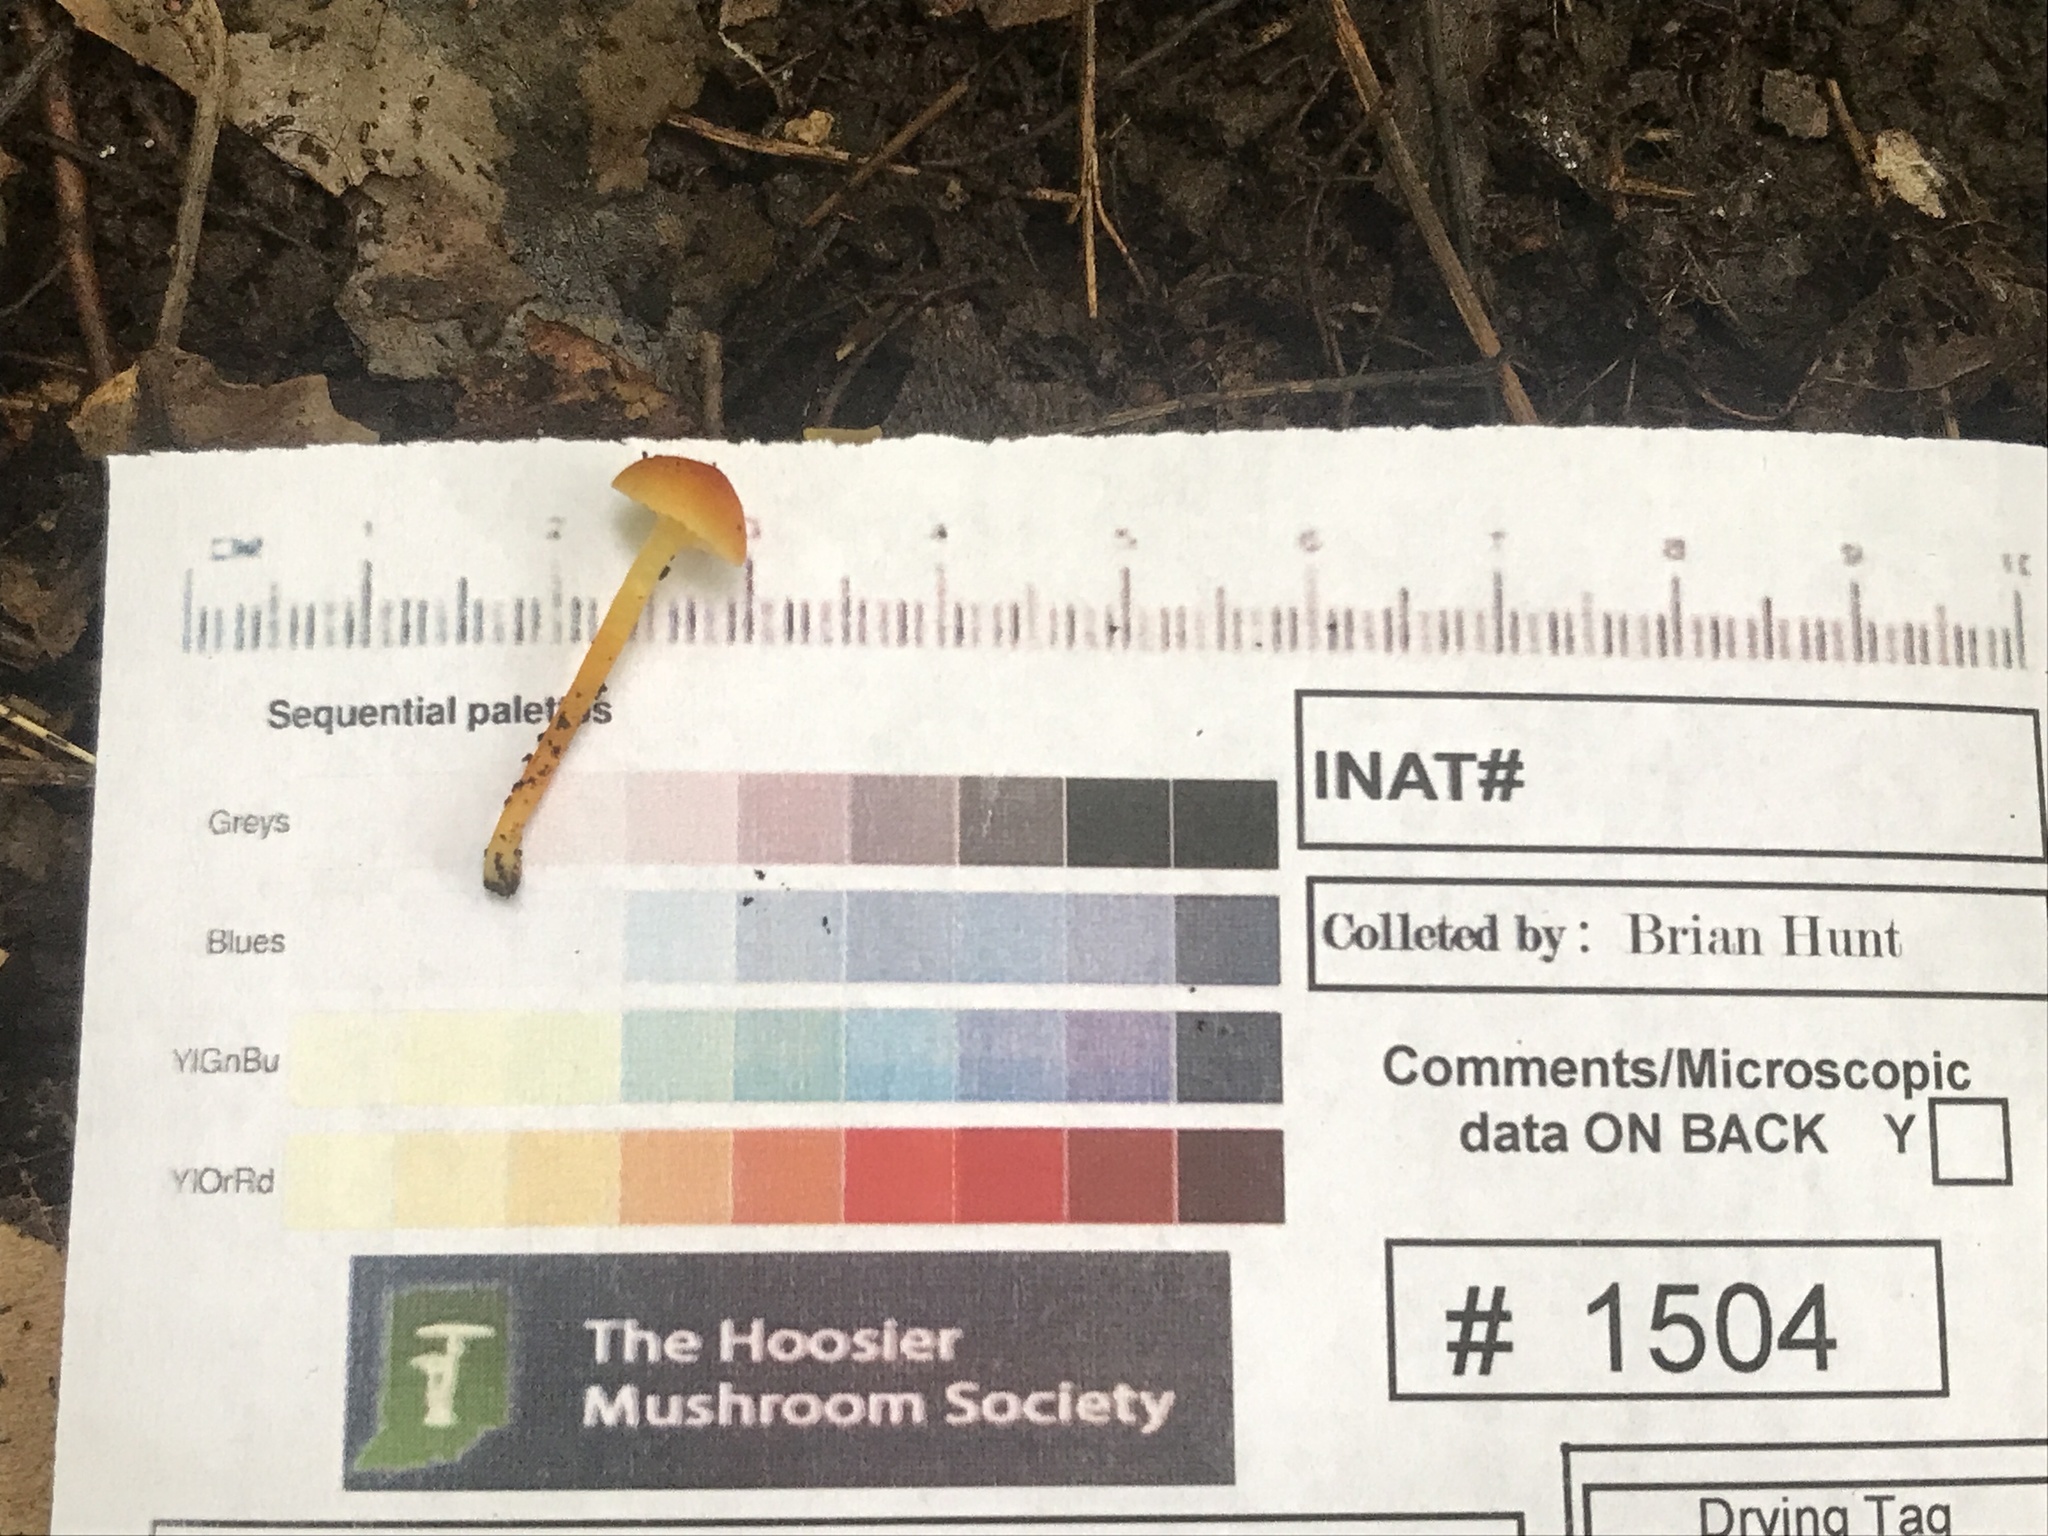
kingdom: Fungi
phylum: Basidiomycota
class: Agaricomycetes
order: Agaricales
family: Hygrophoraceae
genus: Hygrocybe
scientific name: Hygrocybe mucronella
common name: Bitter waxcap
